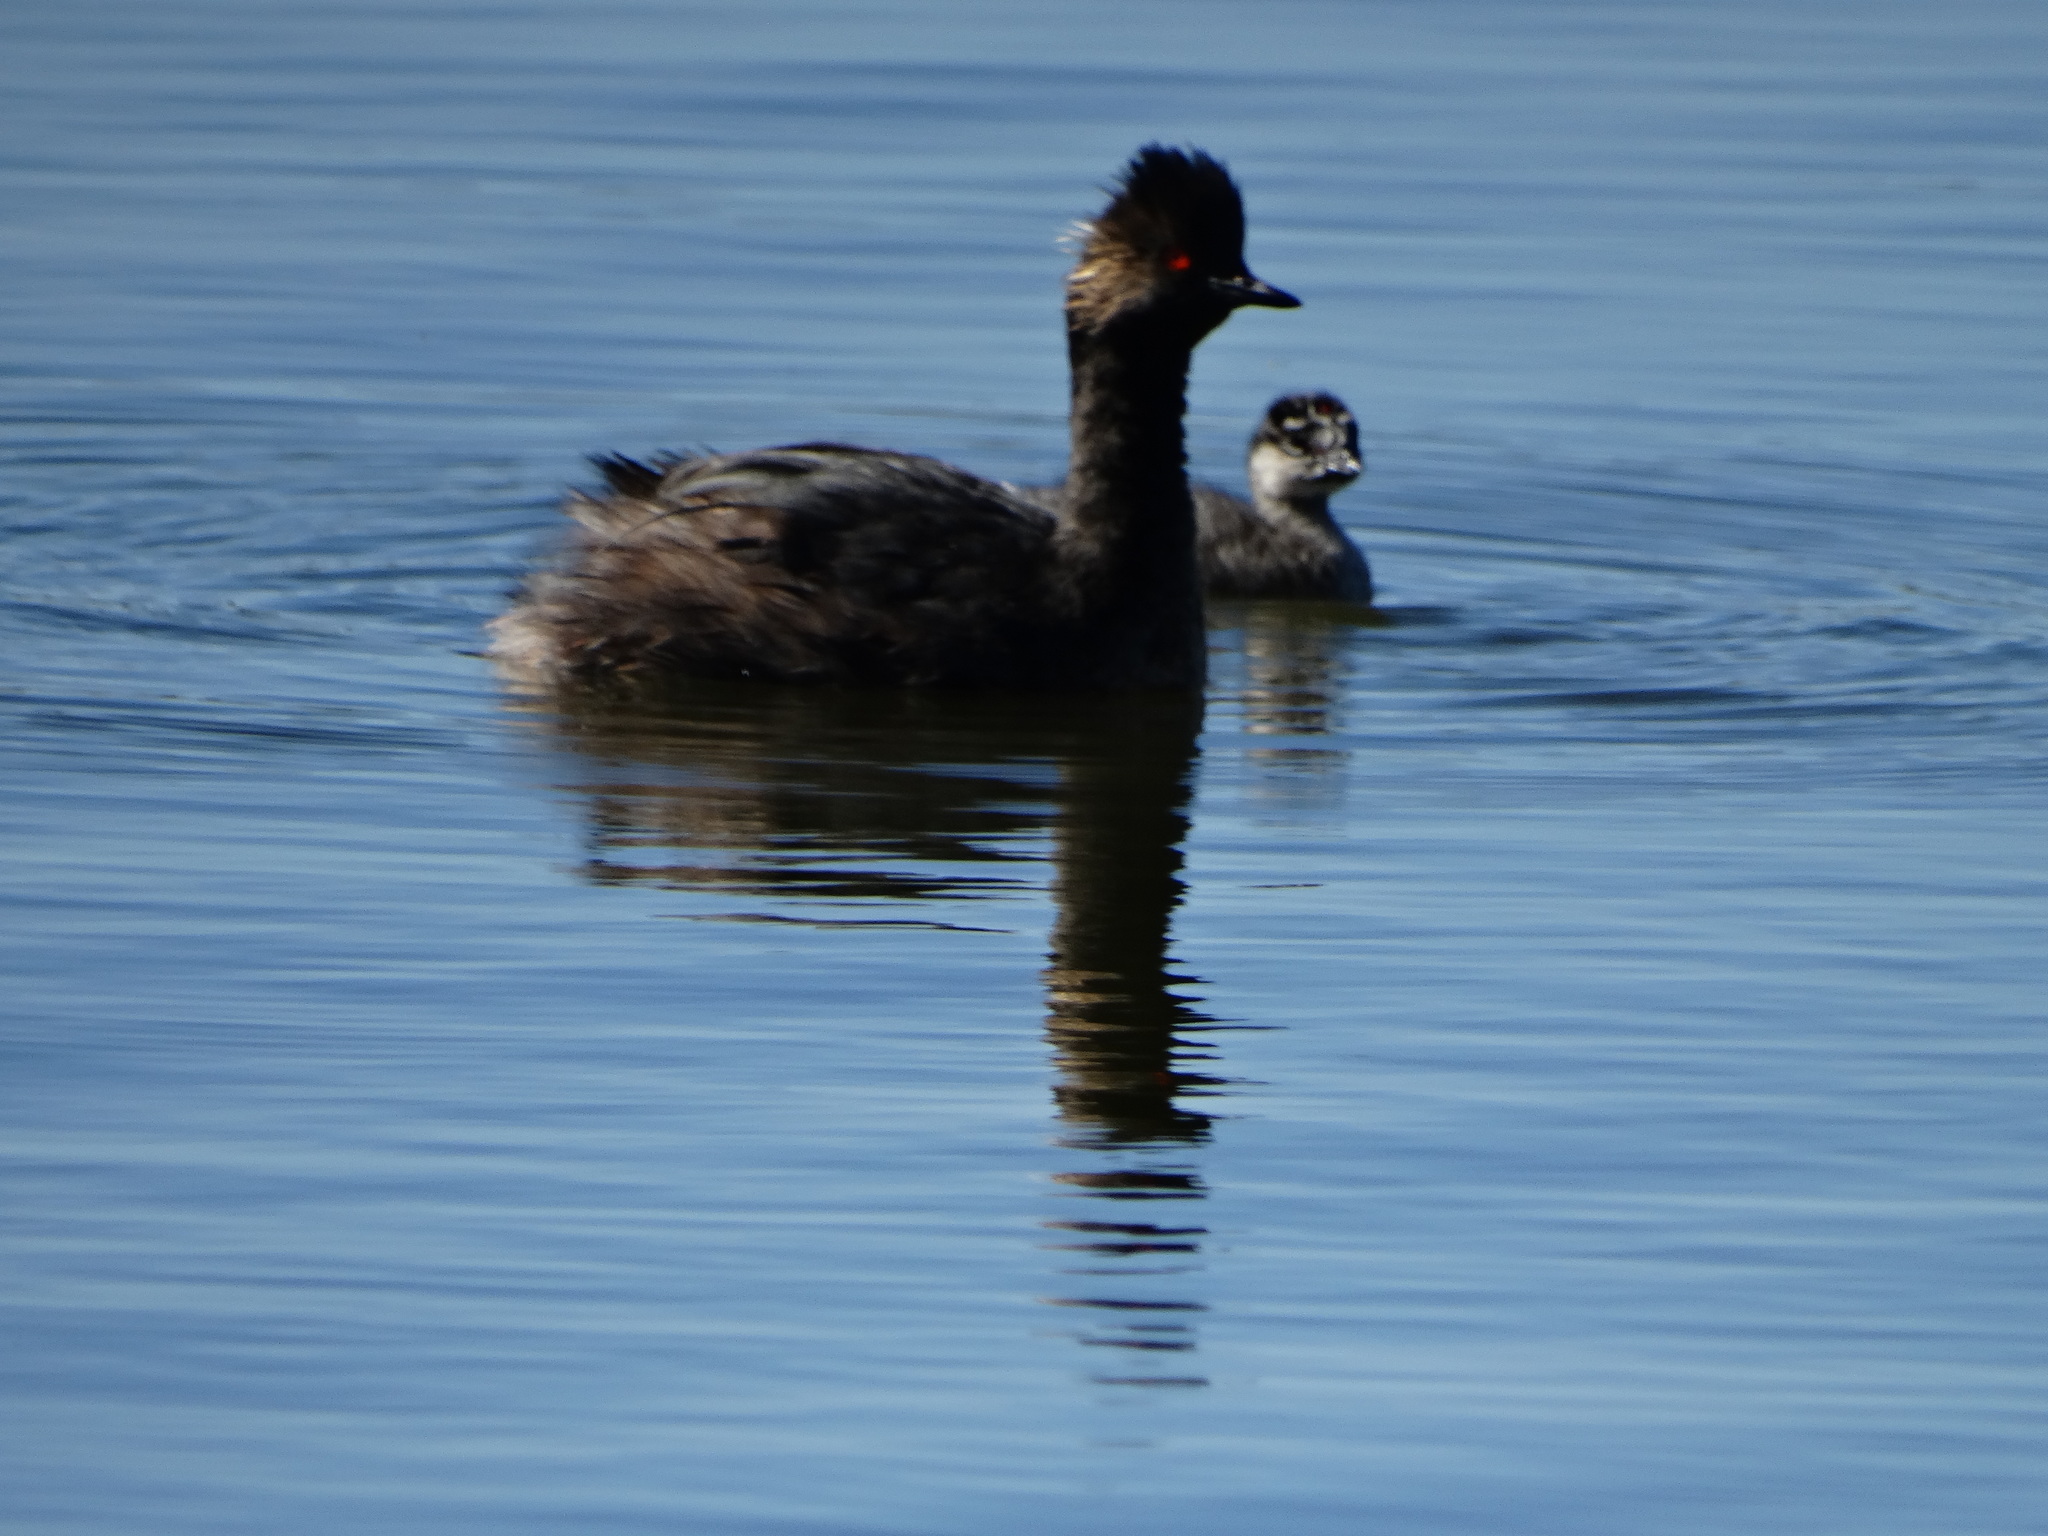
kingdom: Animalia
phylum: Chordata
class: Aves
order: Podicipediformes
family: Podicipedidae
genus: Podiceps
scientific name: Podiceps nigricollis
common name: Black-necked grebe
